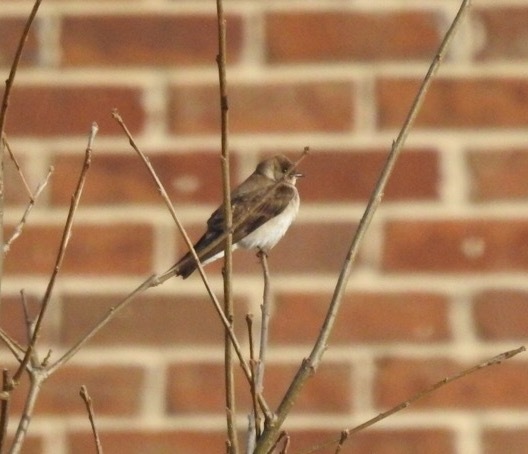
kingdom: Animalia
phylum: Chordata
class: Aves
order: Passeriformes
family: Hirundinidae
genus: Stelgidopteryx
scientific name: Stelgidopteryx serripennis
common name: Northern rough-winged swallow
